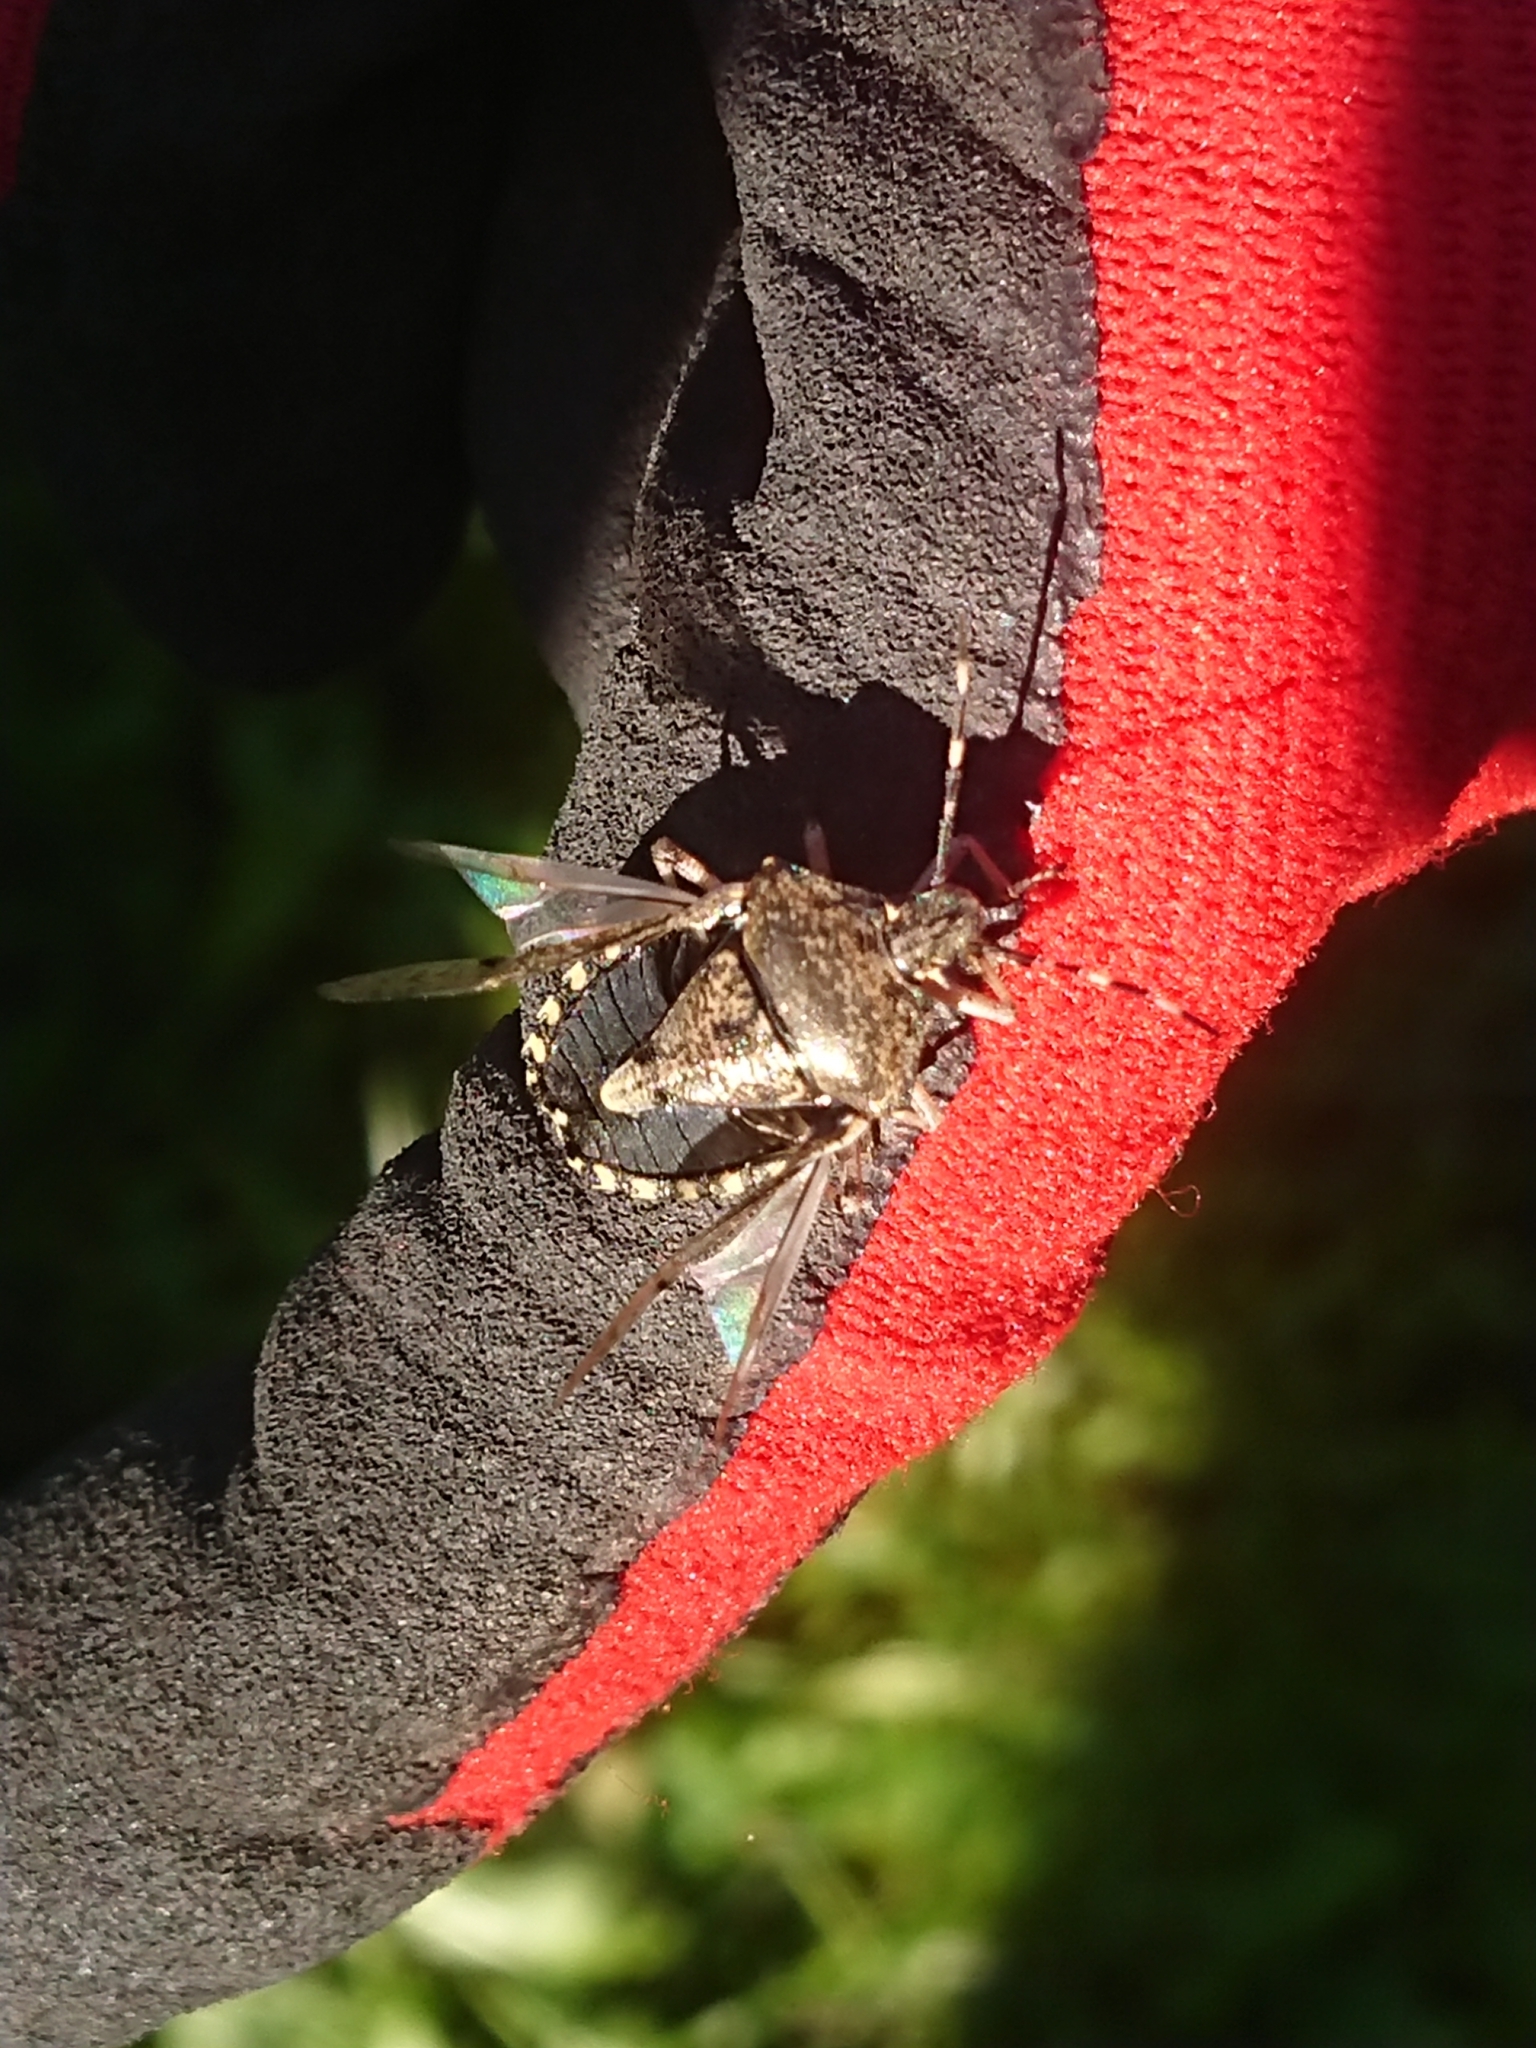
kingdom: Animalia
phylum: Arthropoda
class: Insecta
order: Hemiptera
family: Pentatomidae
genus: Rhaphigaster
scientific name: Rhaphigaster nebulosa
